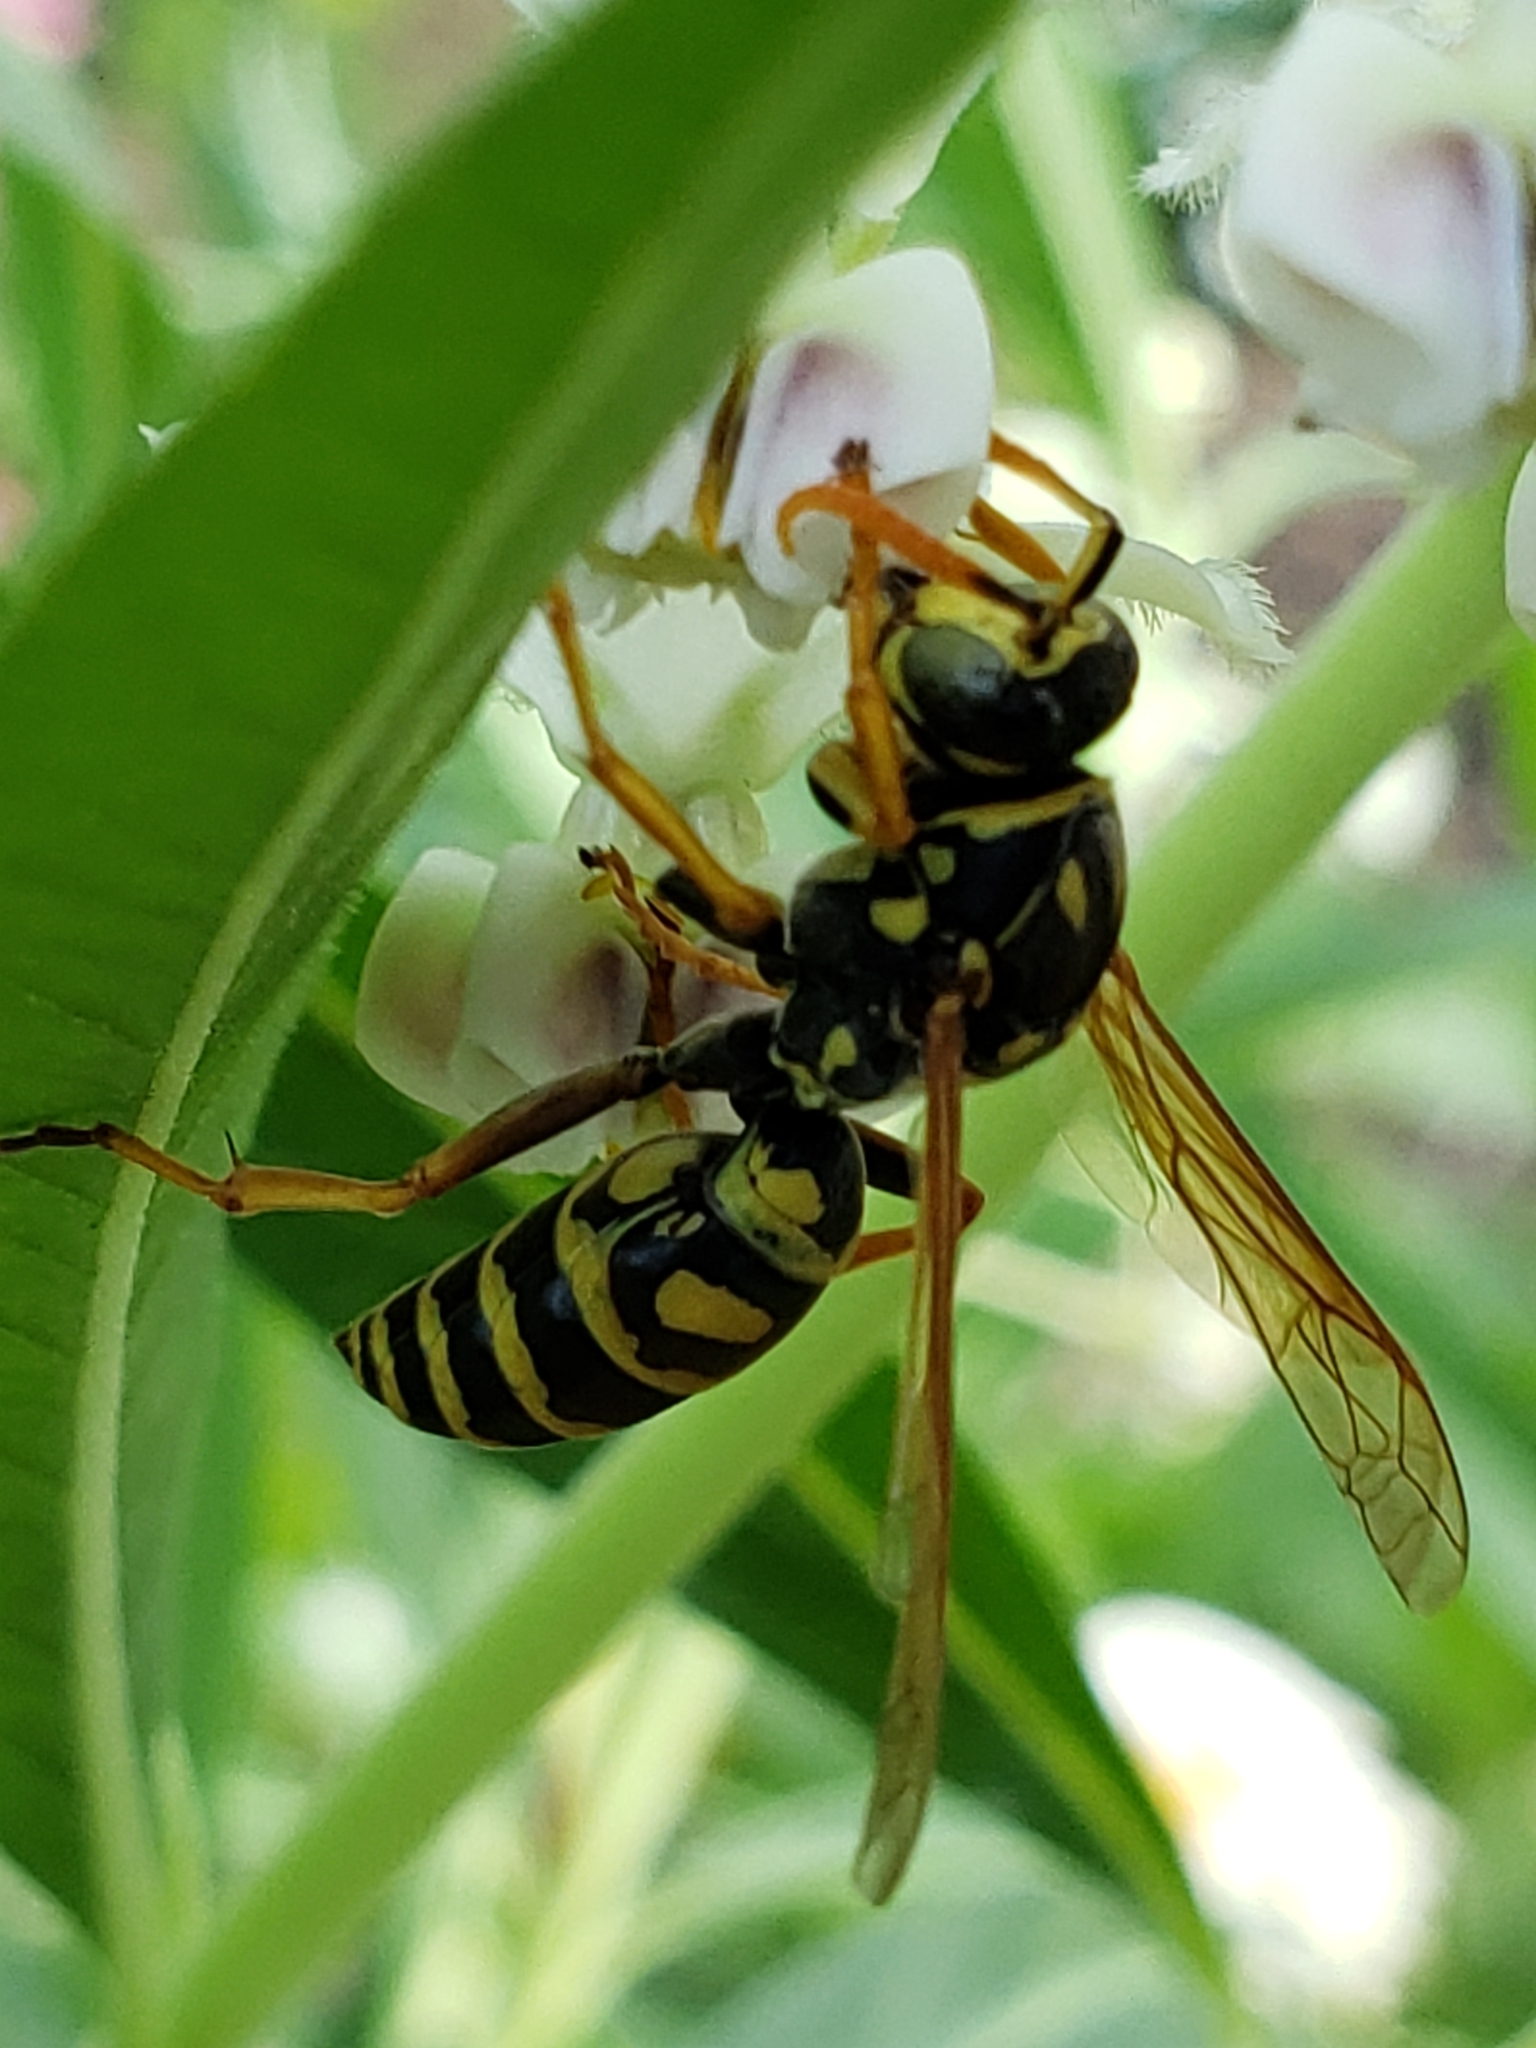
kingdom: Animalia
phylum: Arthropoda
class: Insecta
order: Hymenoptera
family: Eumenidae
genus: Polistes
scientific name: Polistes dominula
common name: Paper wasp
